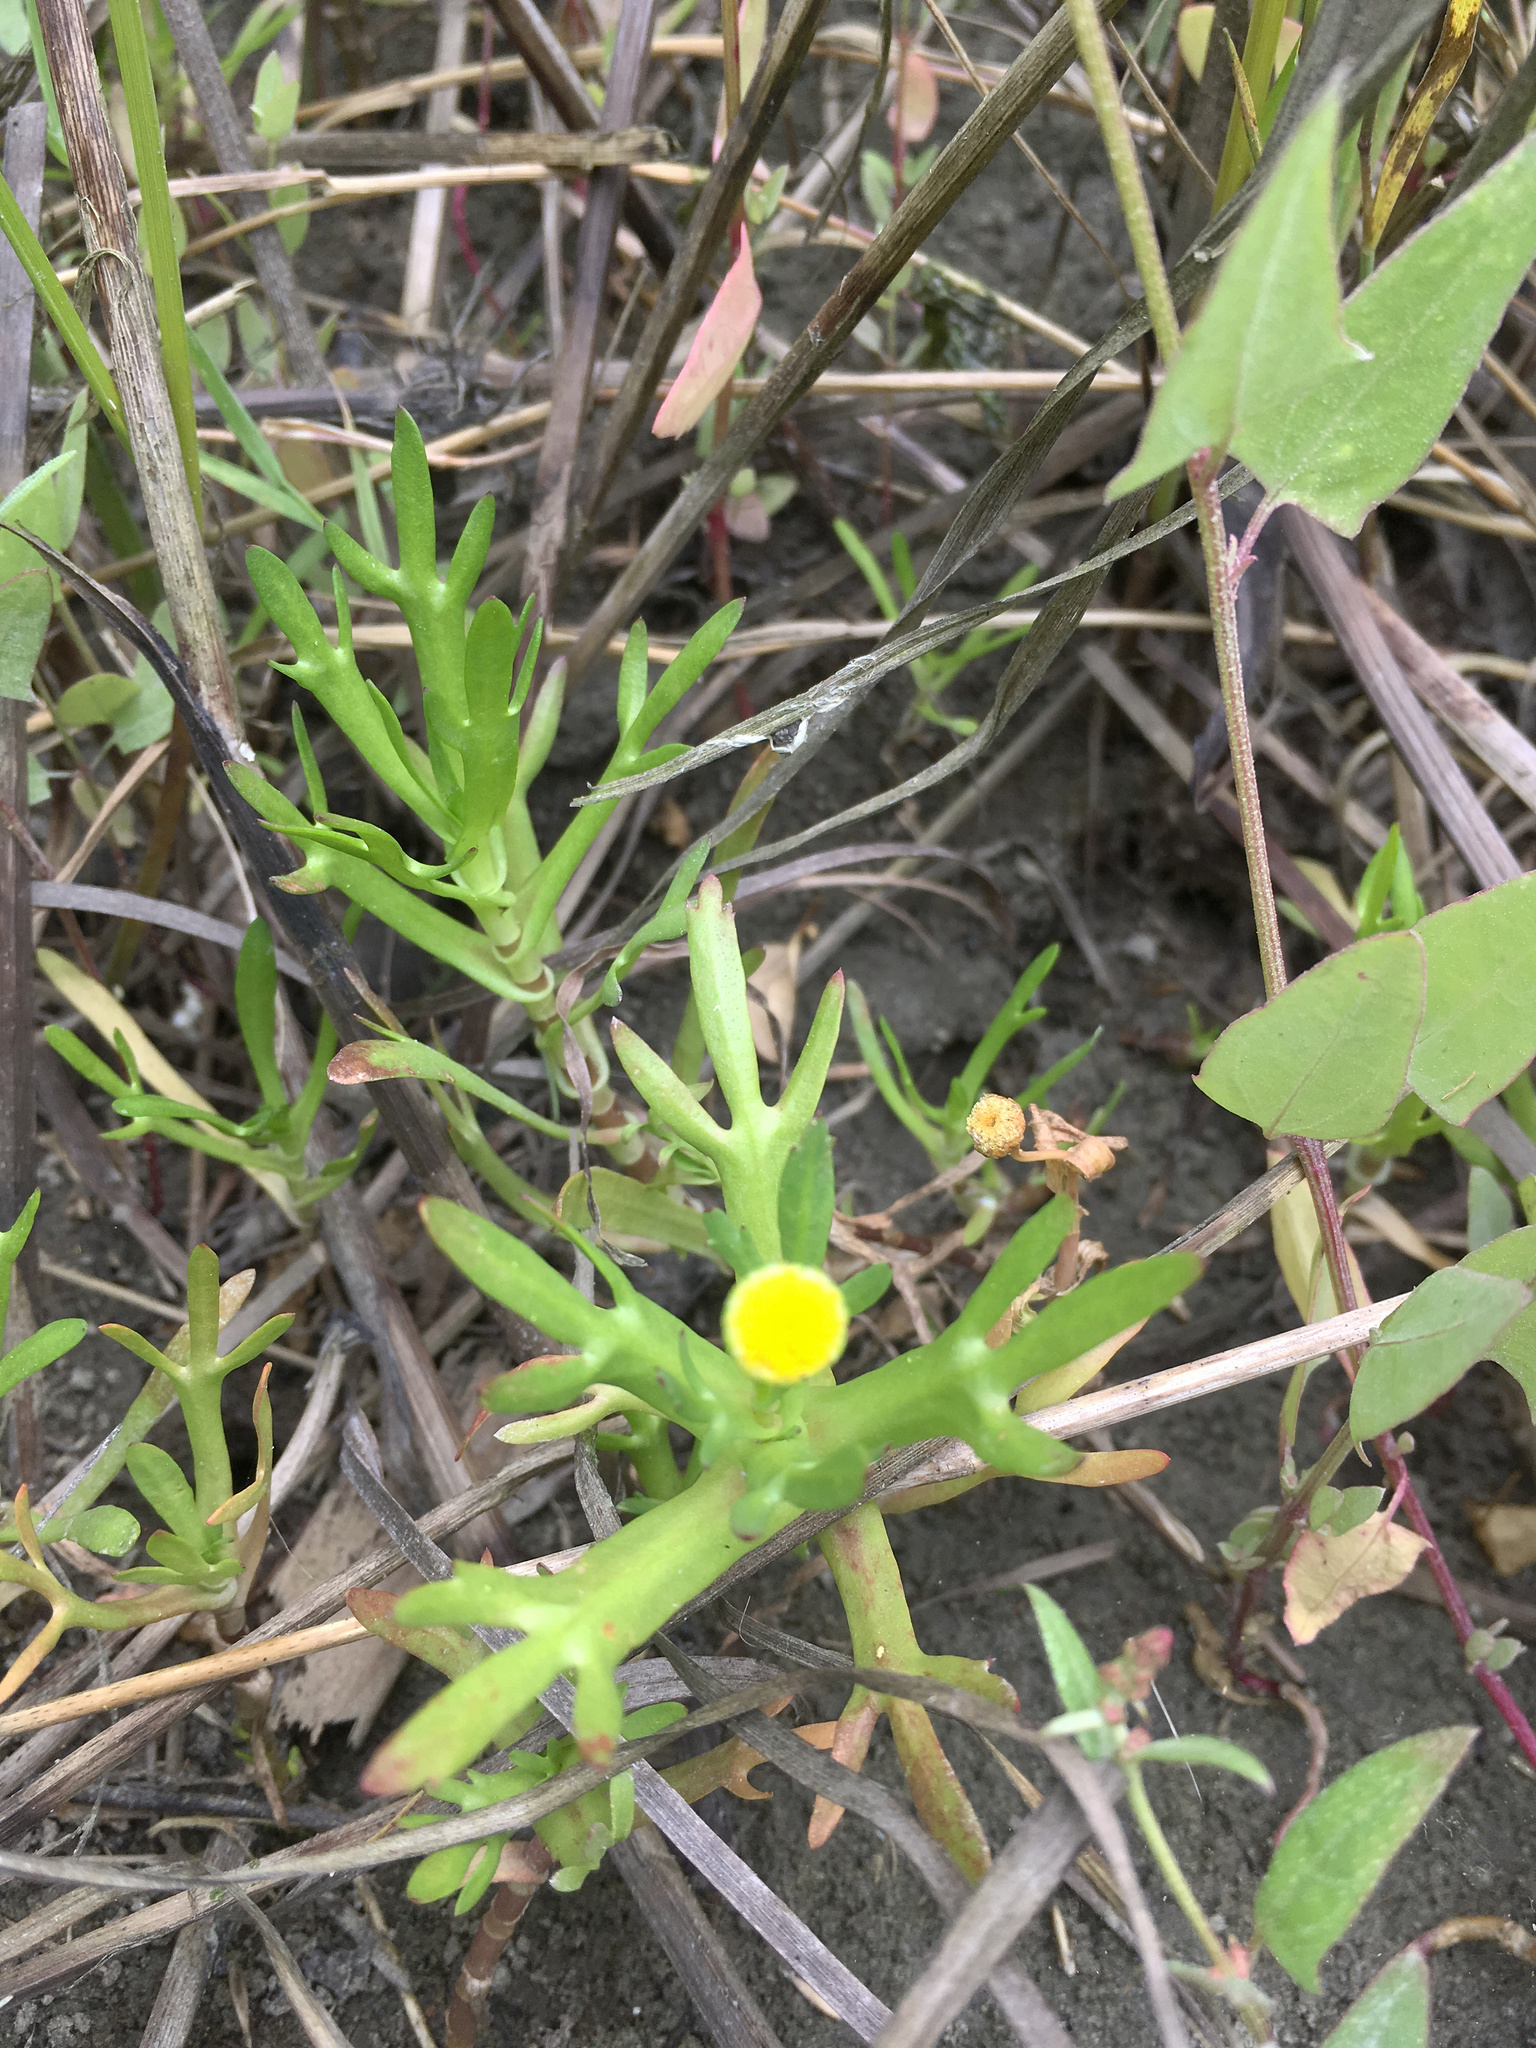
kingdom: Plantae
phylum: Tracheophyta
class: Magnoliopsida
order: Asterales
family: Asteraceae
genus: Cotula
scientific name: Cotula coronopifolia
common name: Buttonweed
